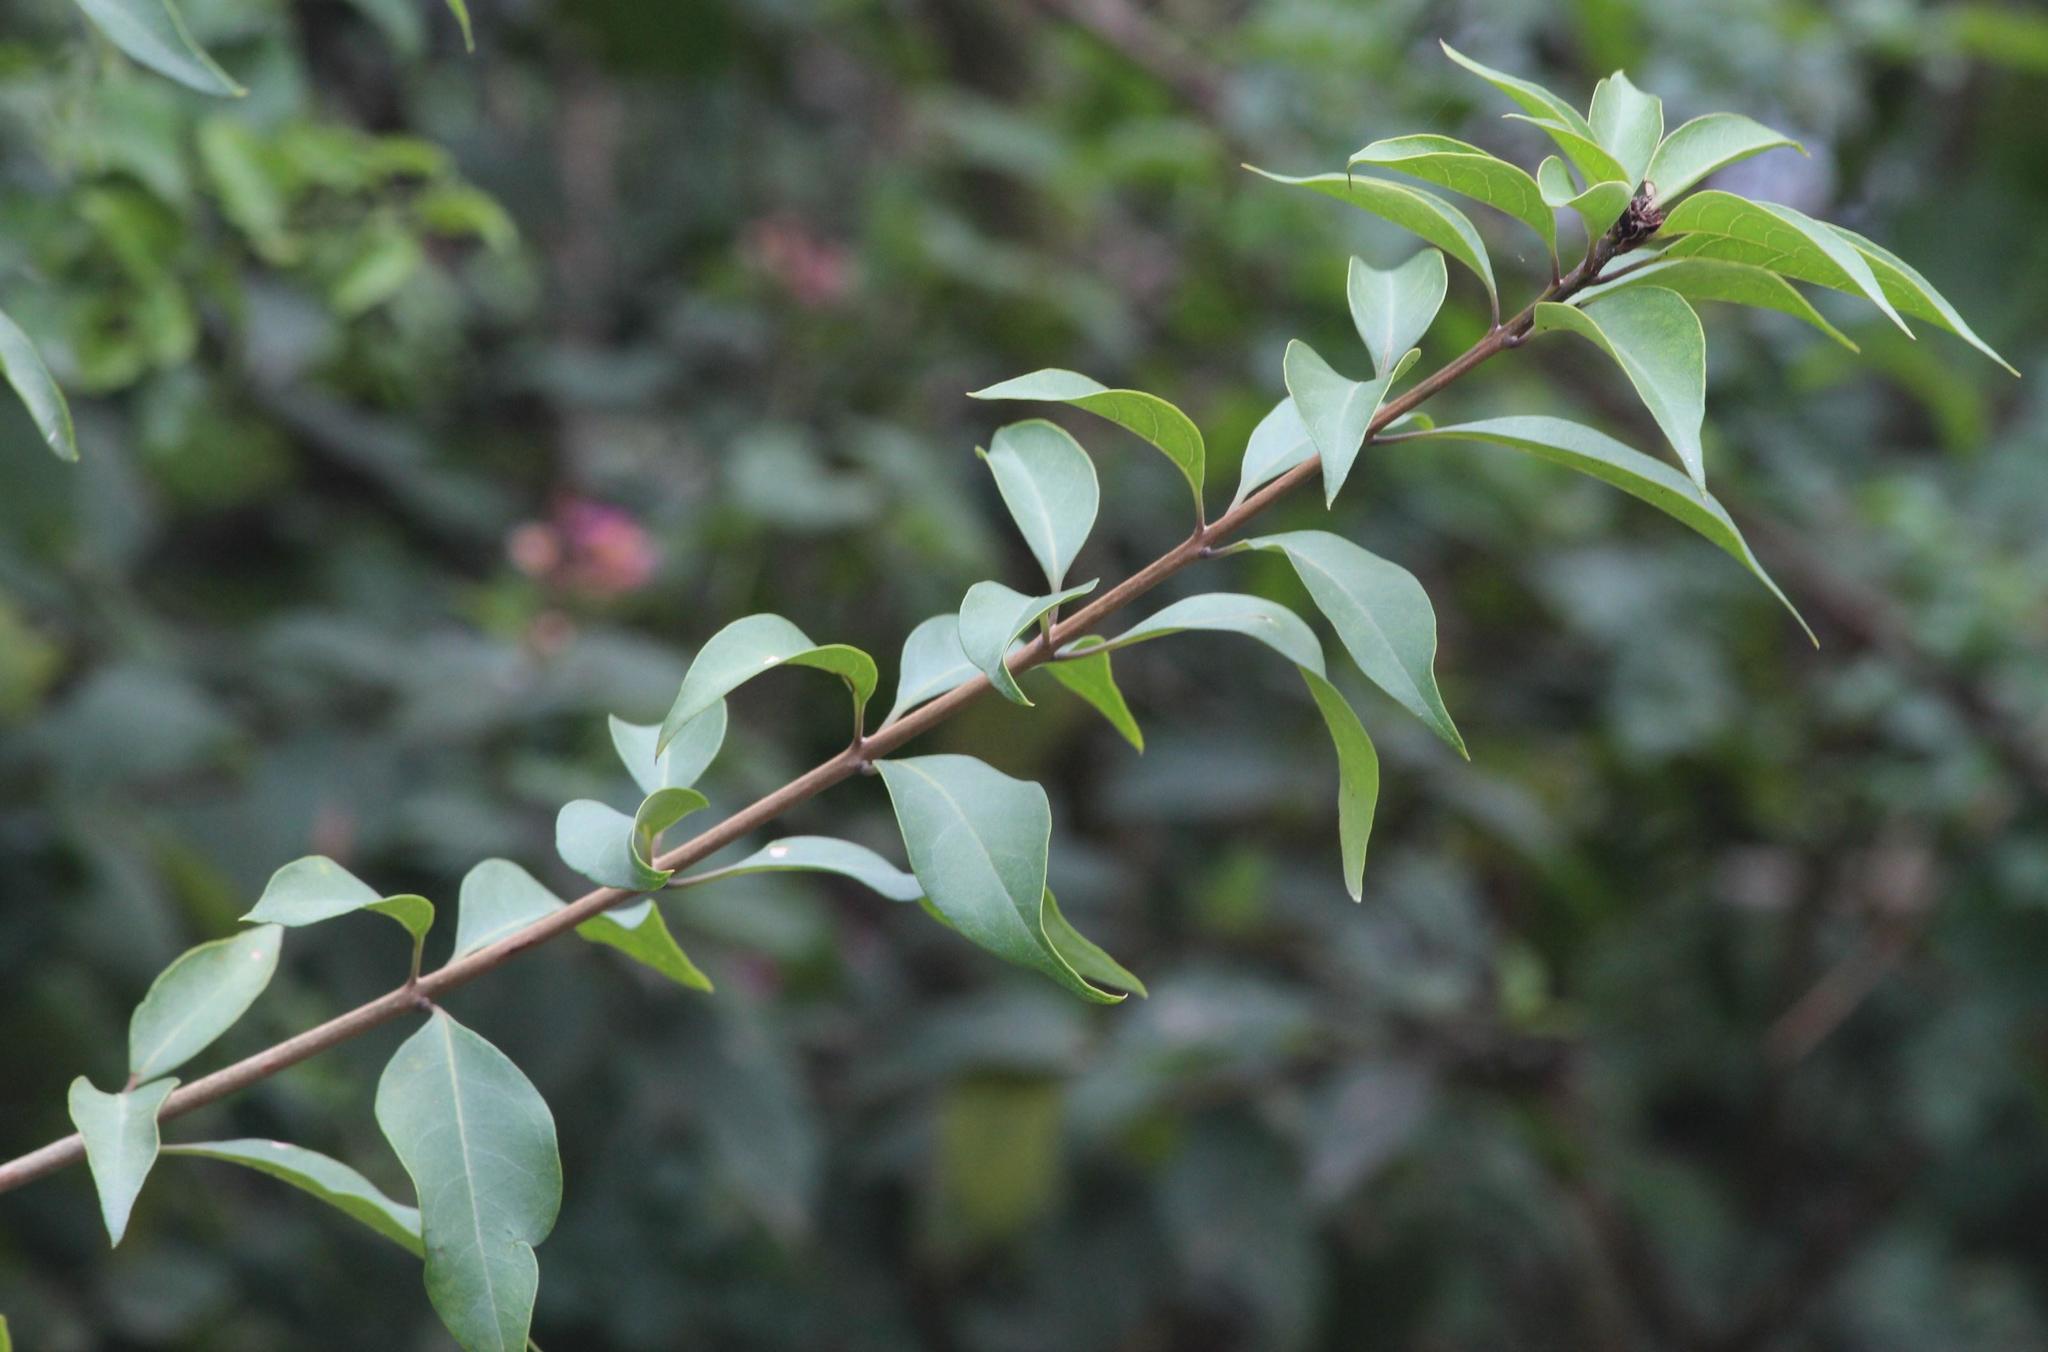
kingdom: Plantae
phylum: Tracheophyta
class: Magnoliopsida
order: Lamiales
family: Lamiaceae
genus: Volkameria
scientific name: Volkameria glabra
